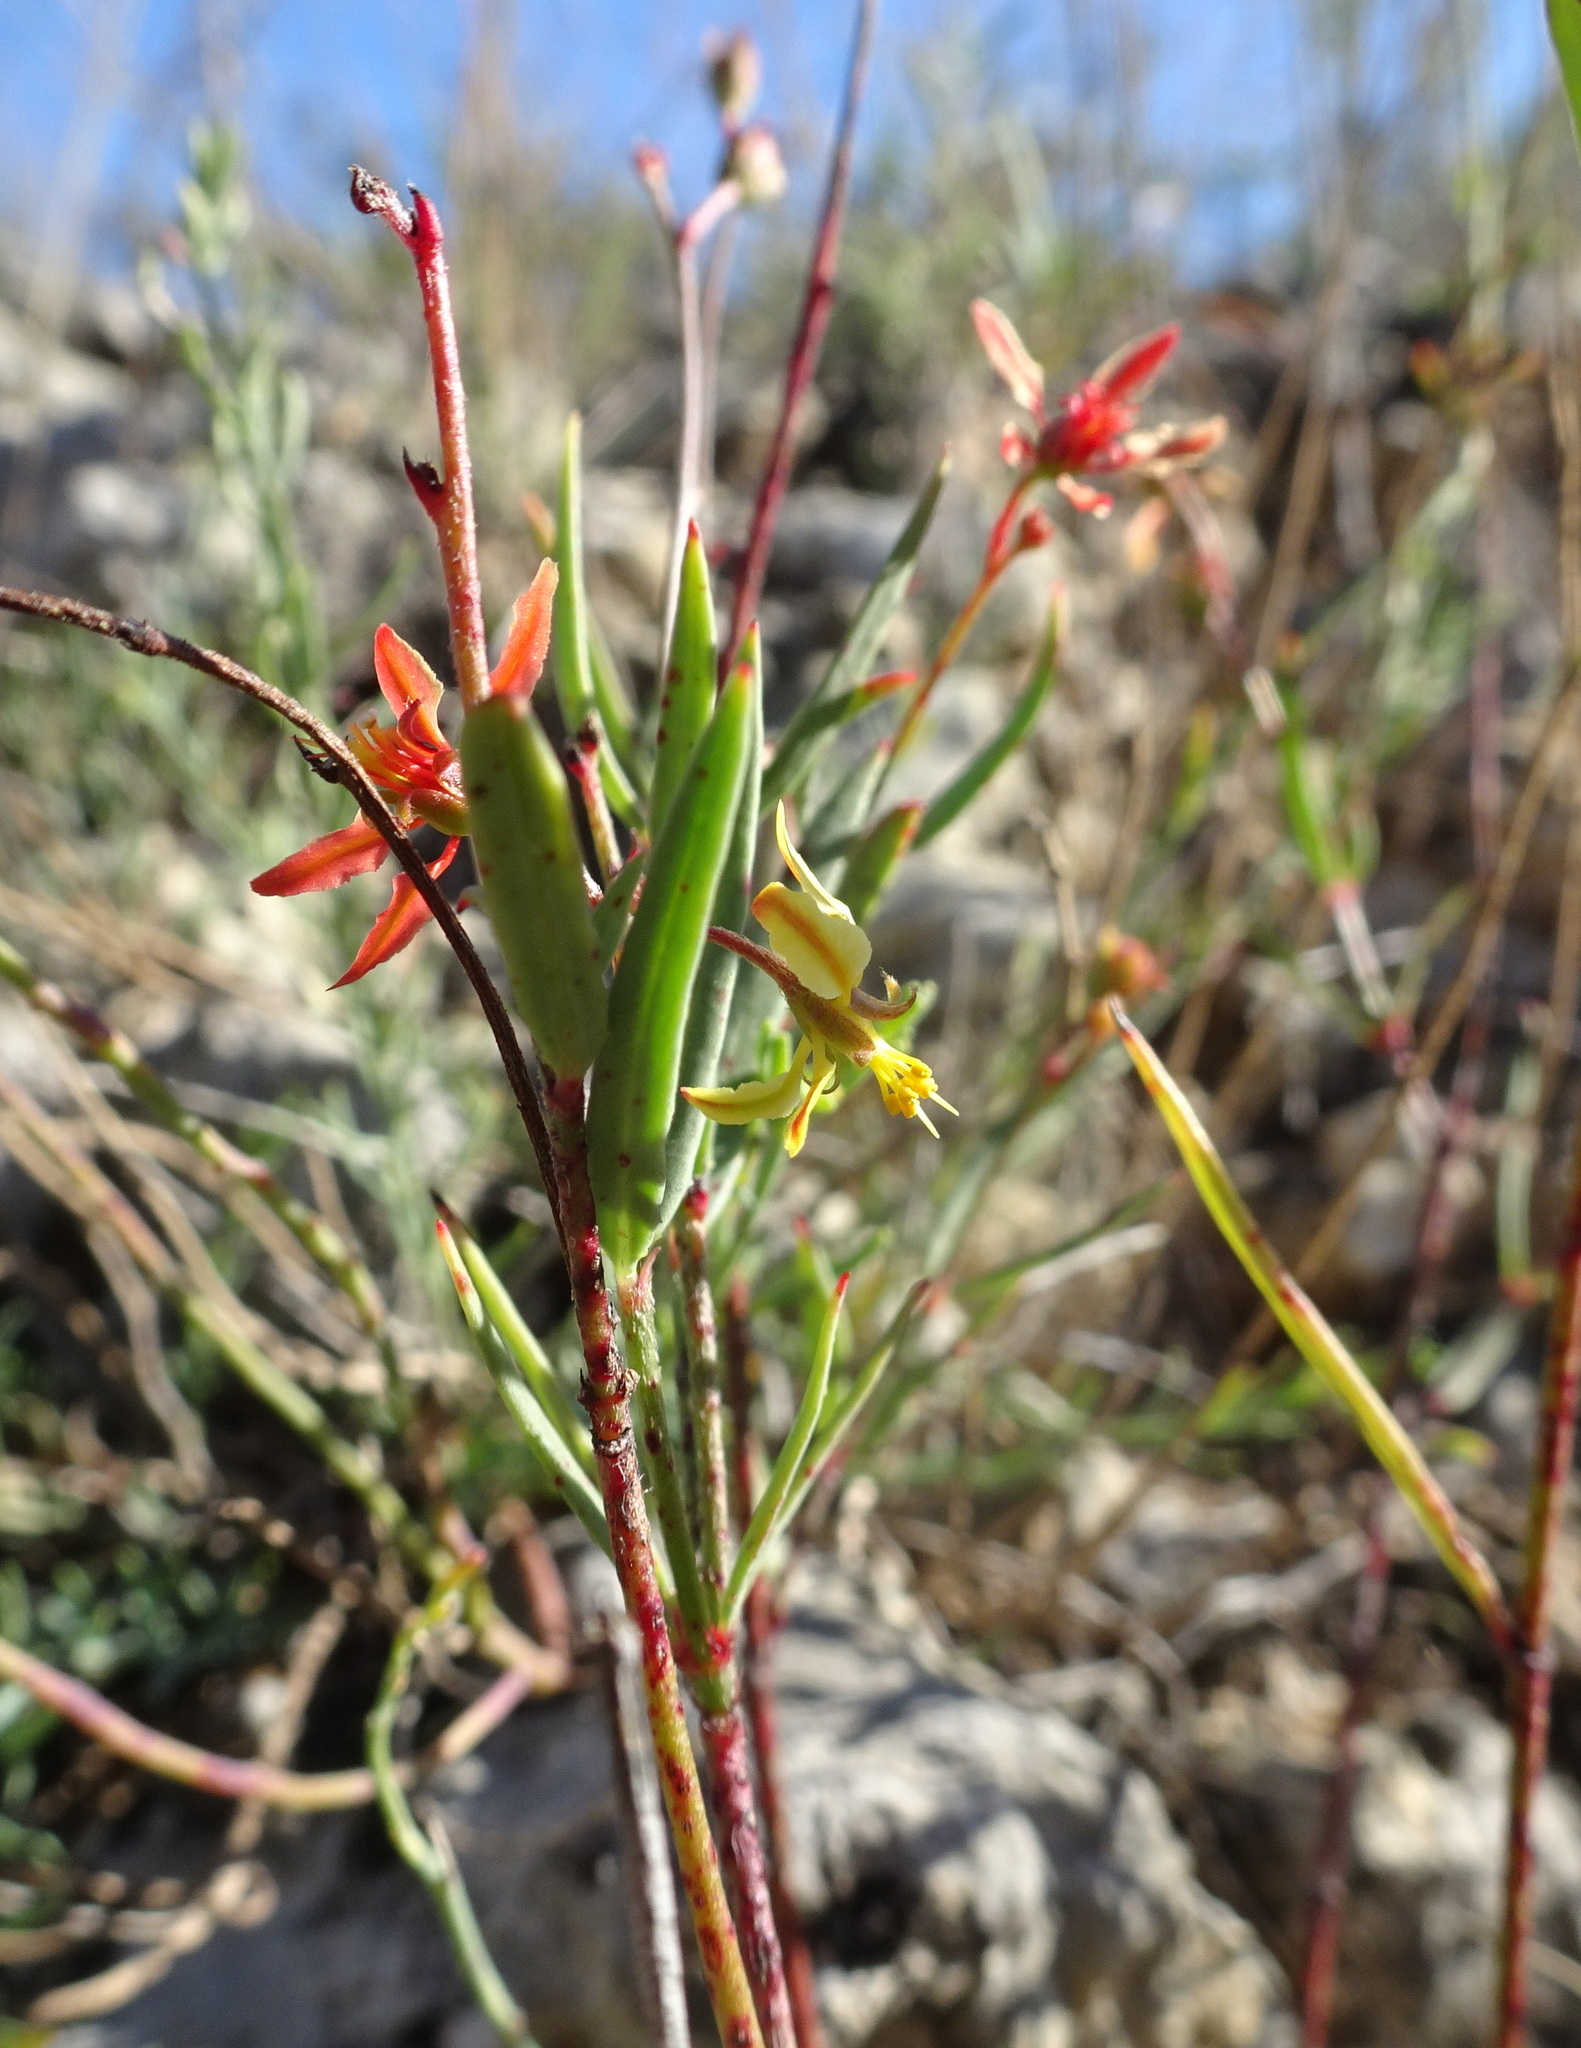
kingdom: Plantae
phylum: Tracheophyta
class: Magnoliopsida
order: Malpighiales
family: Malpighiaceae
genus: Galphimia
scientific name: Galphimia angustifolia
